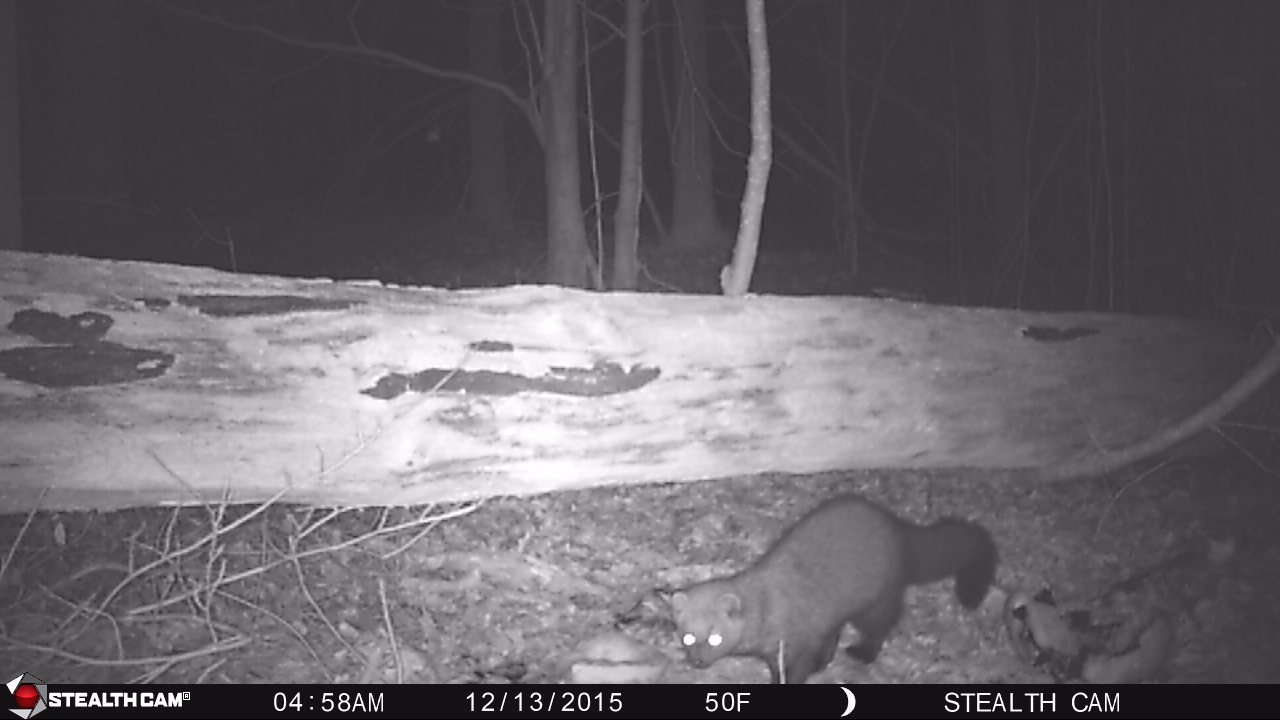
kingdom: Animalia
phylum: Chordata
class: Mammalia
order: Carnivora
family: Mustelidae
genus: Pekania
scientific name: Pekania pennanti
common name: Fisher
